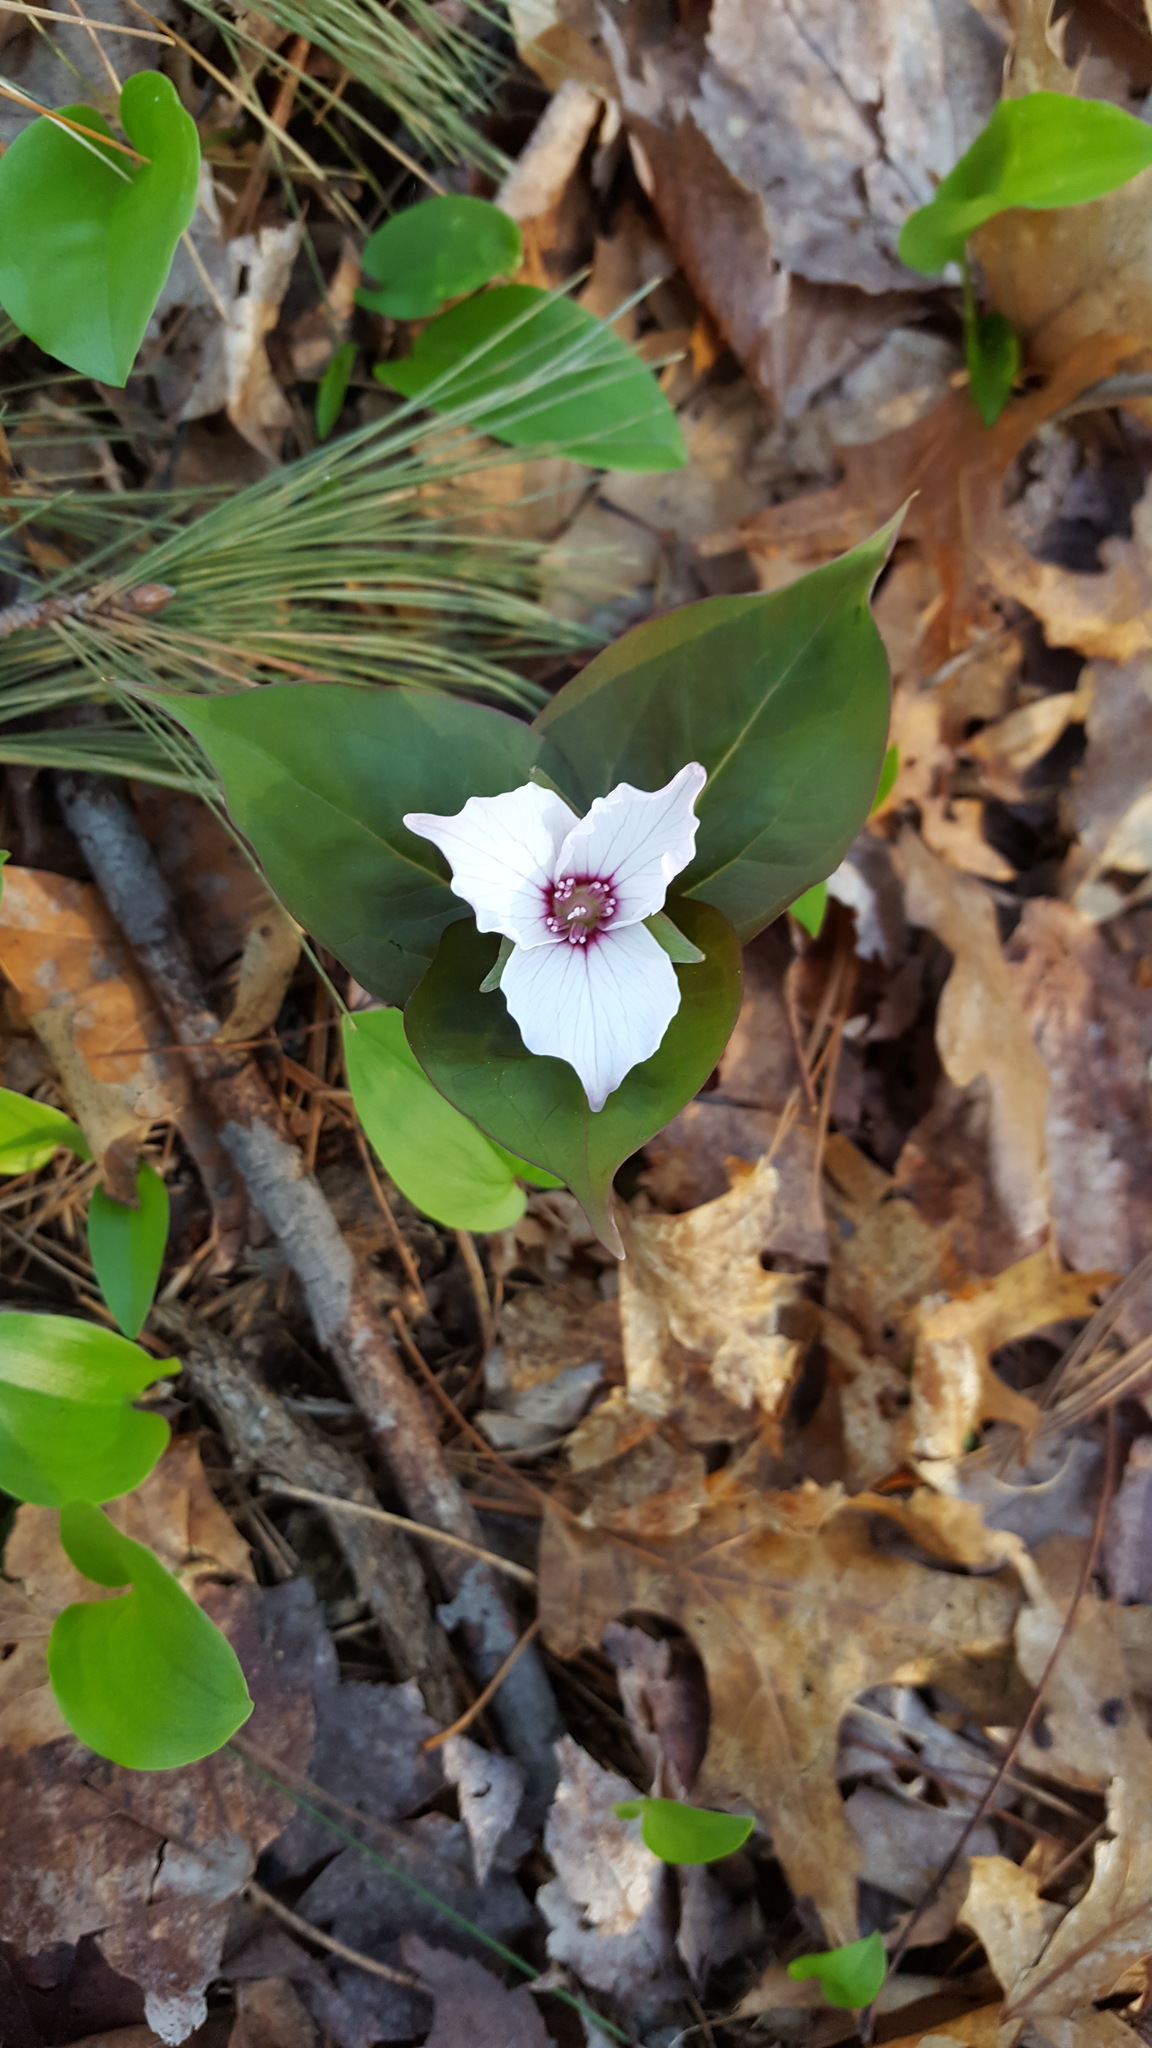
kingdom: Plantae
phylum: Tracheophyta
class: Liliopsida
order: Liliales
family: Melanthiaceae
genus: Trillium
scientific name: Trillium undulatum
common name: Paint trillium
